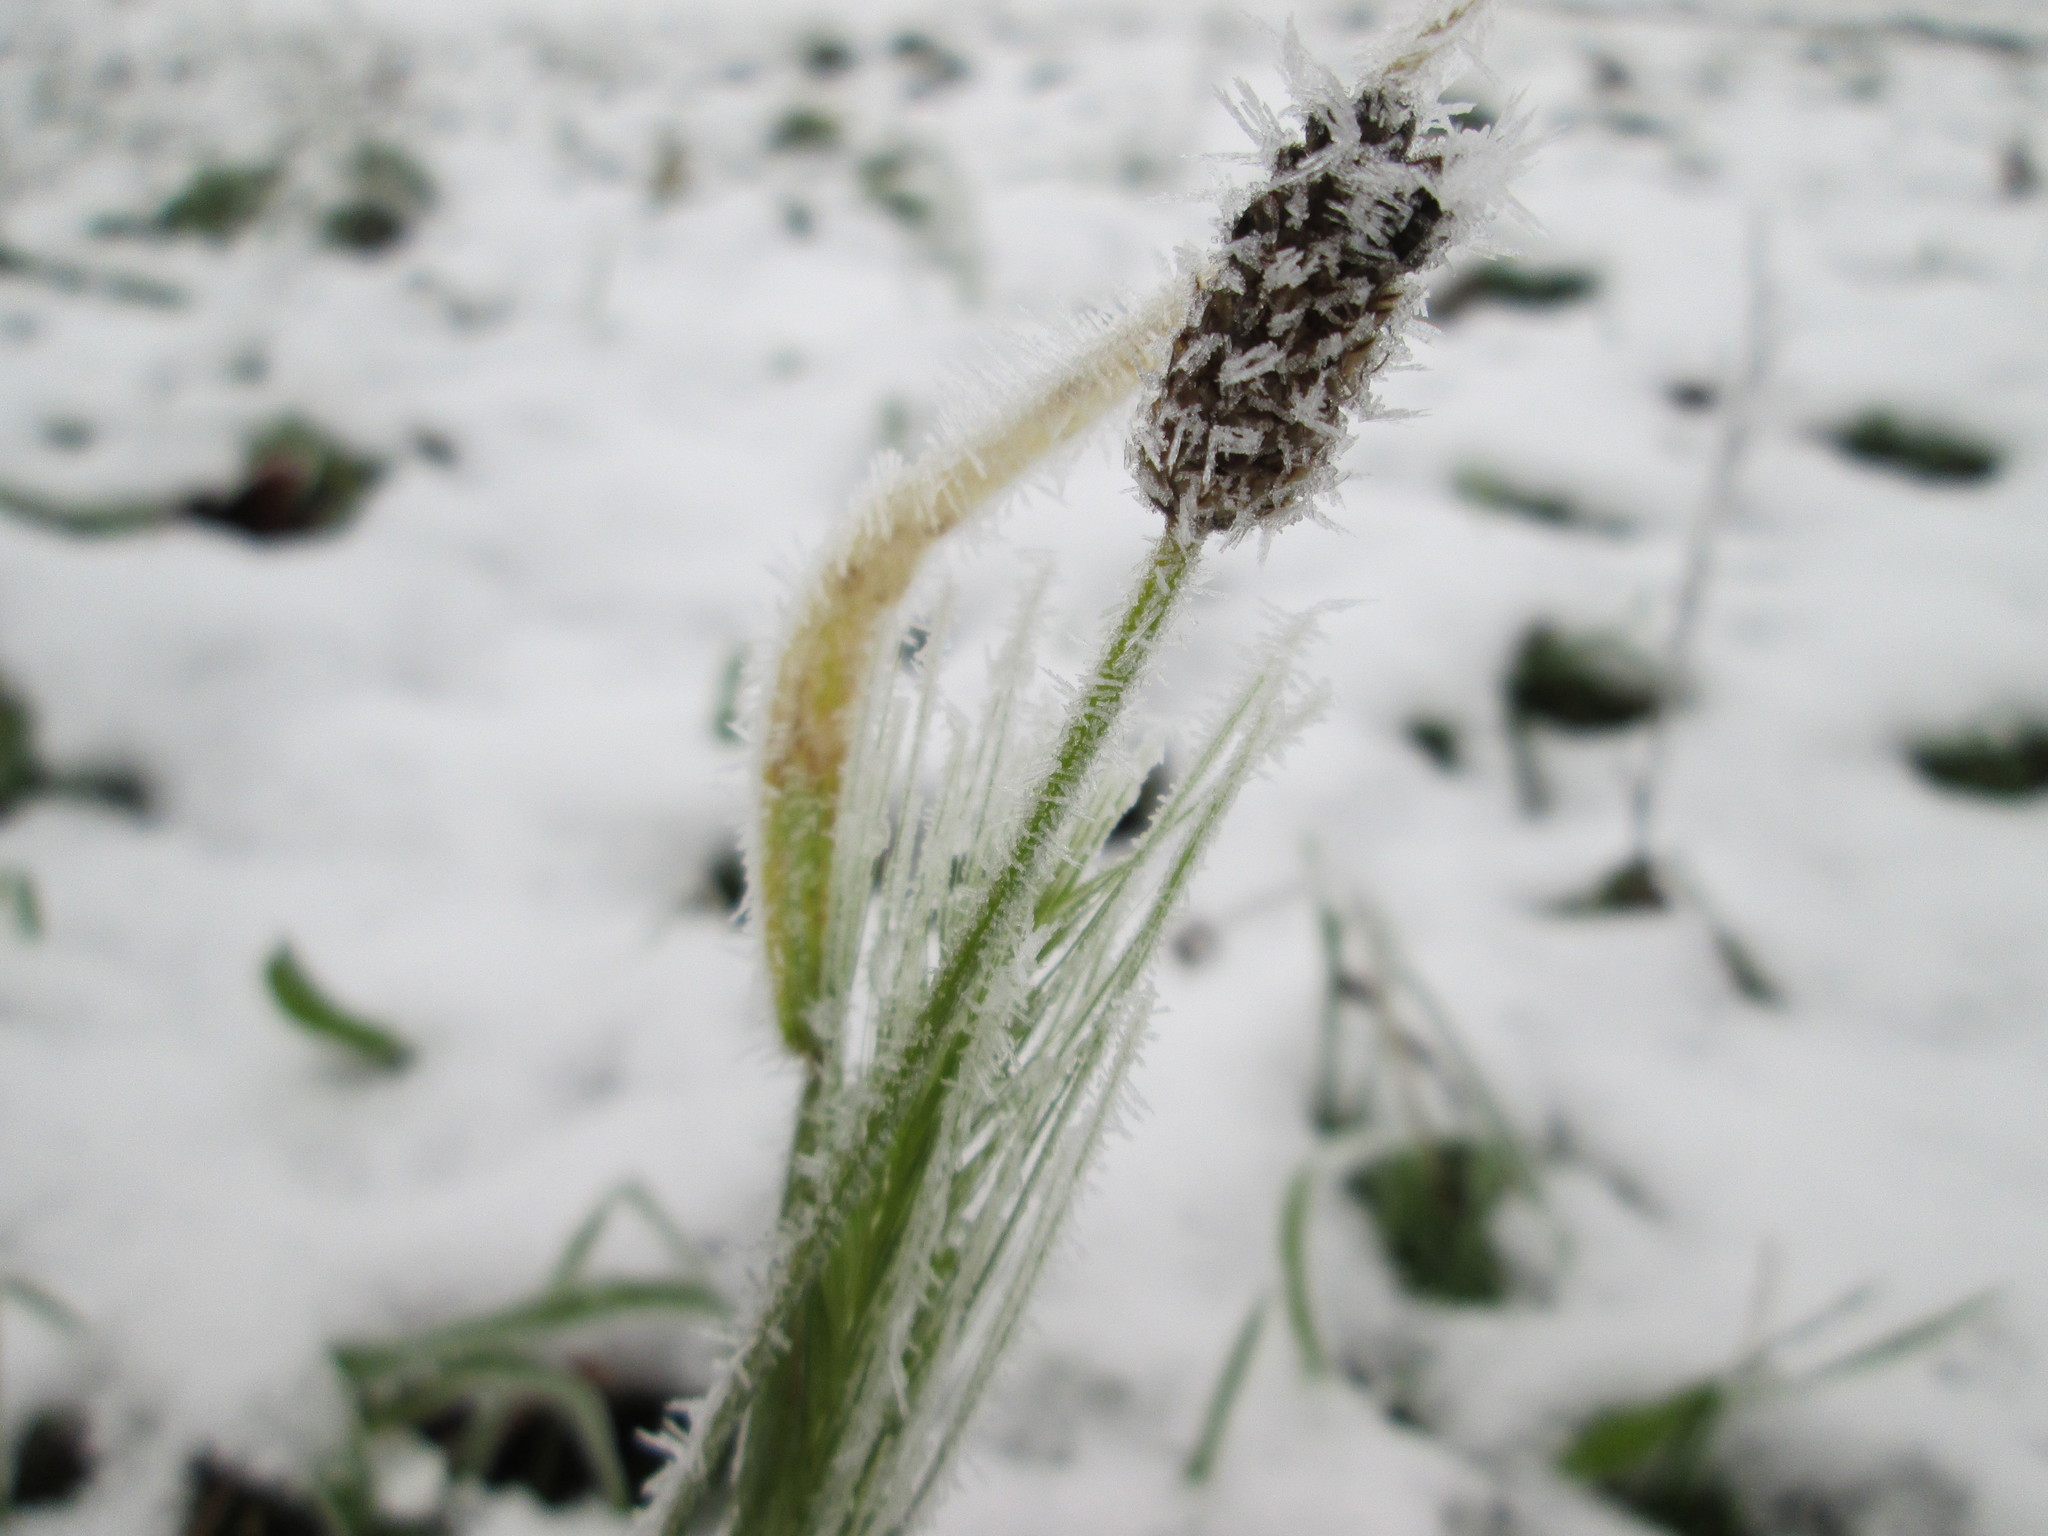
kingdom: Plantae
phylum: Tracheophyta
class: Magnoliopsida
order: Lamiales
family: Plantaginaceae
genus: Plantago
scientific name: Plantago lanceolata
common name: Ribwort plantain
